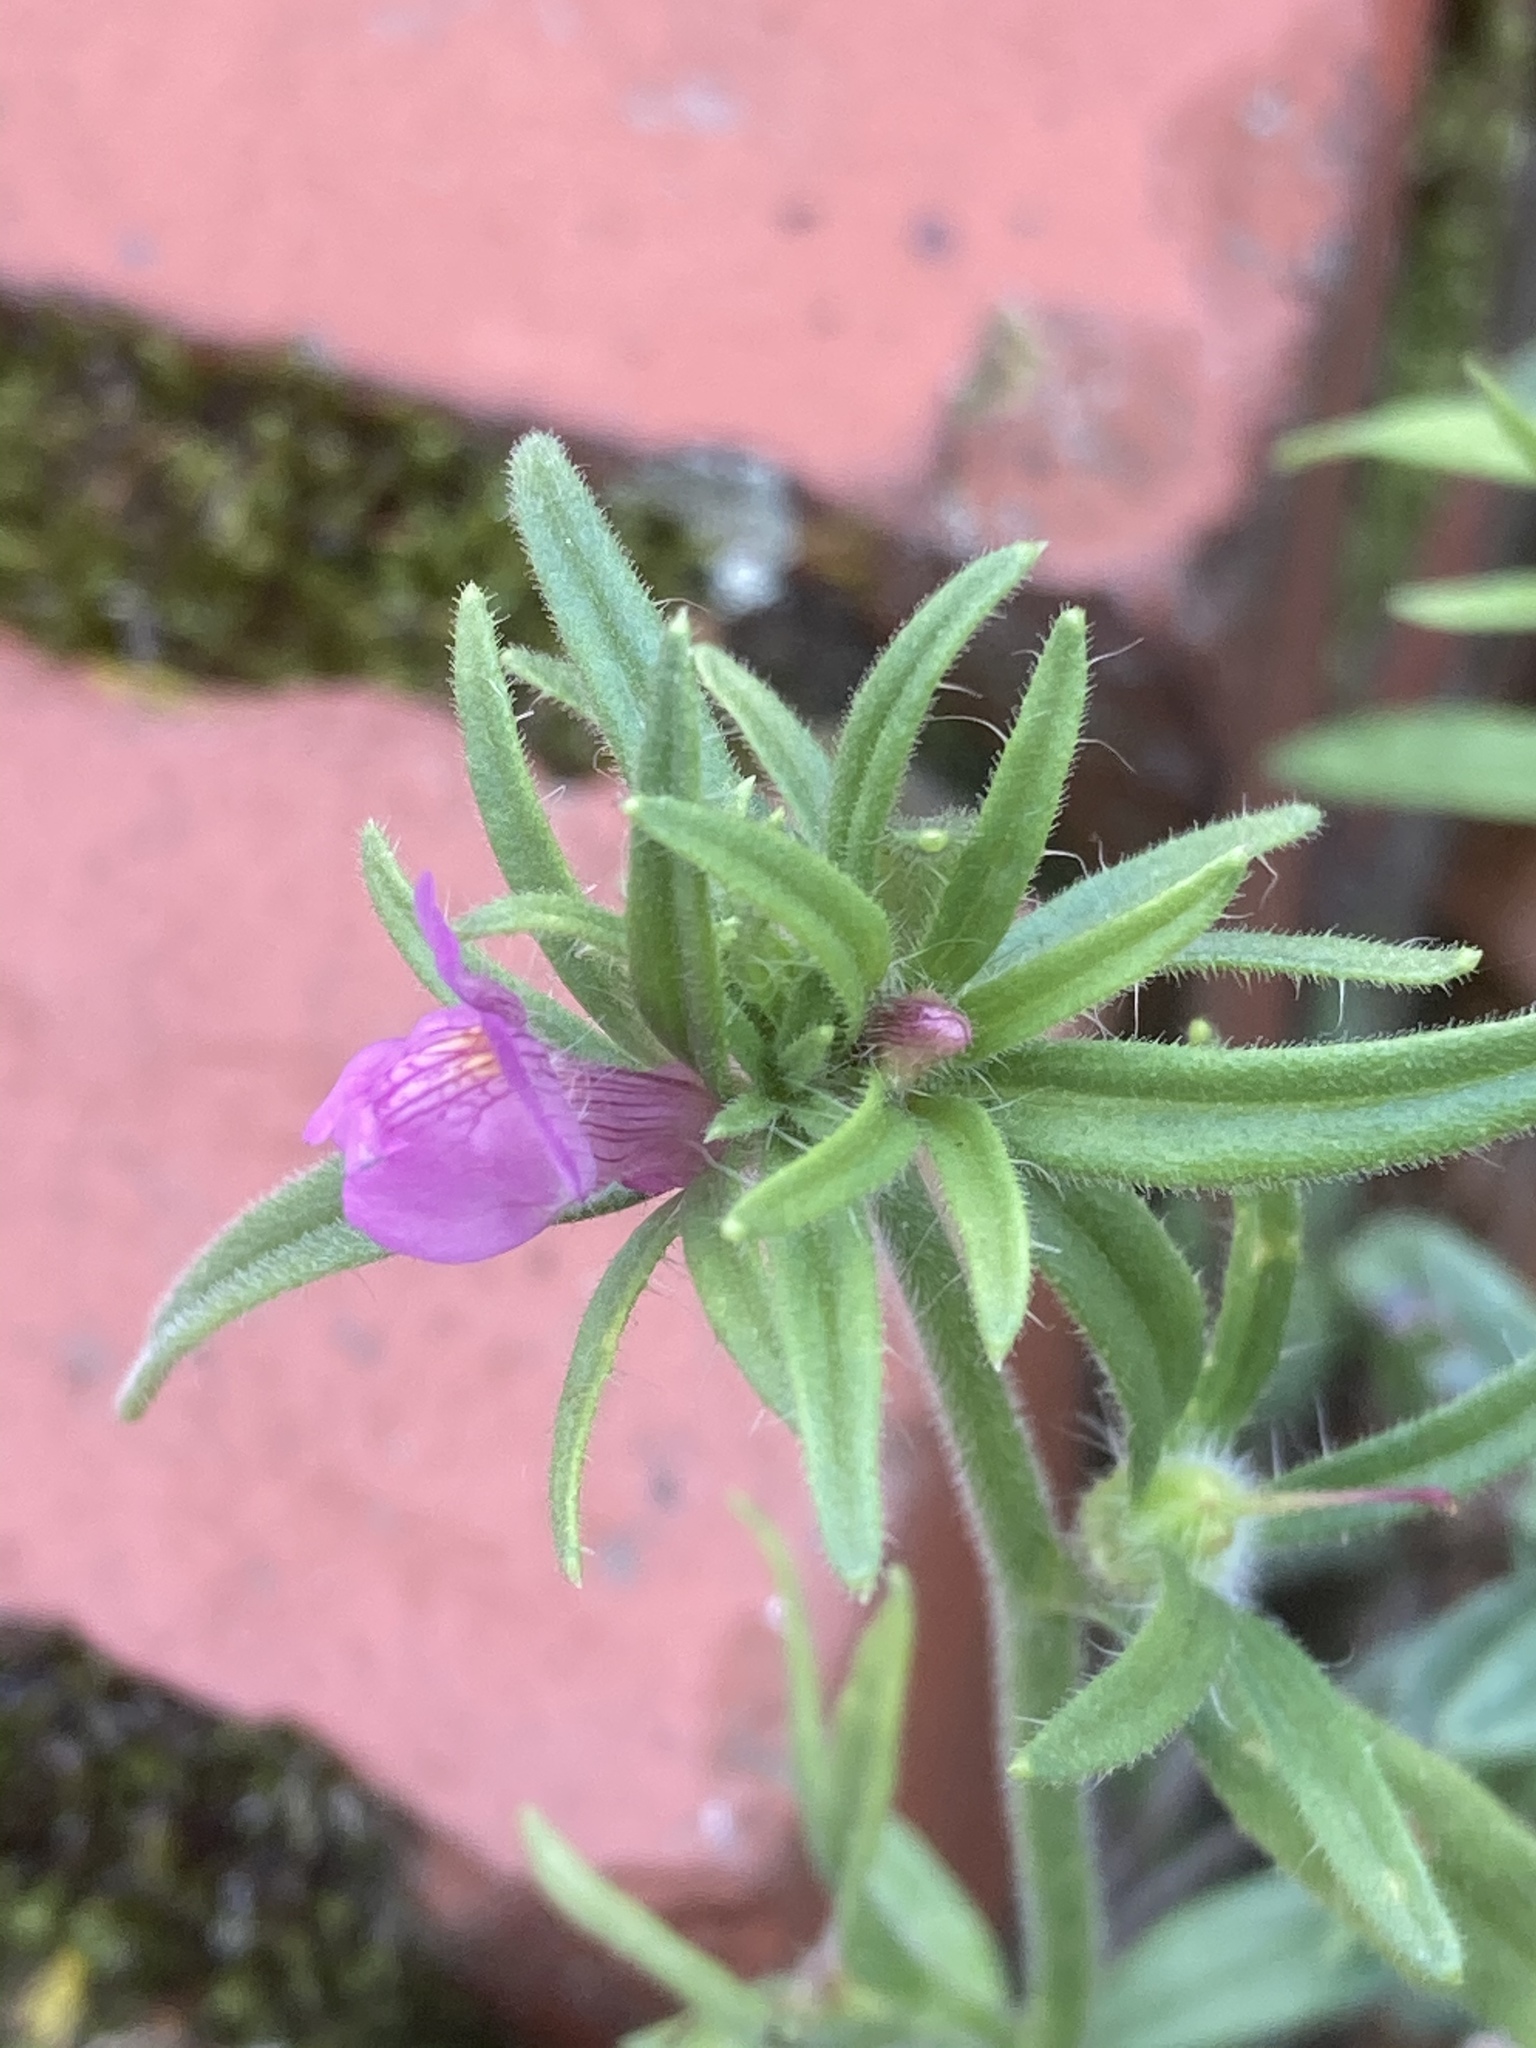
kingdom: Plantae
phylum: Tracheophyta
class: Magnoliopsida
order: Lamiales
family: Plantaginaceae
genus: Misopates
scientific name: Misopates orontium
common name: Weasel's-snout
